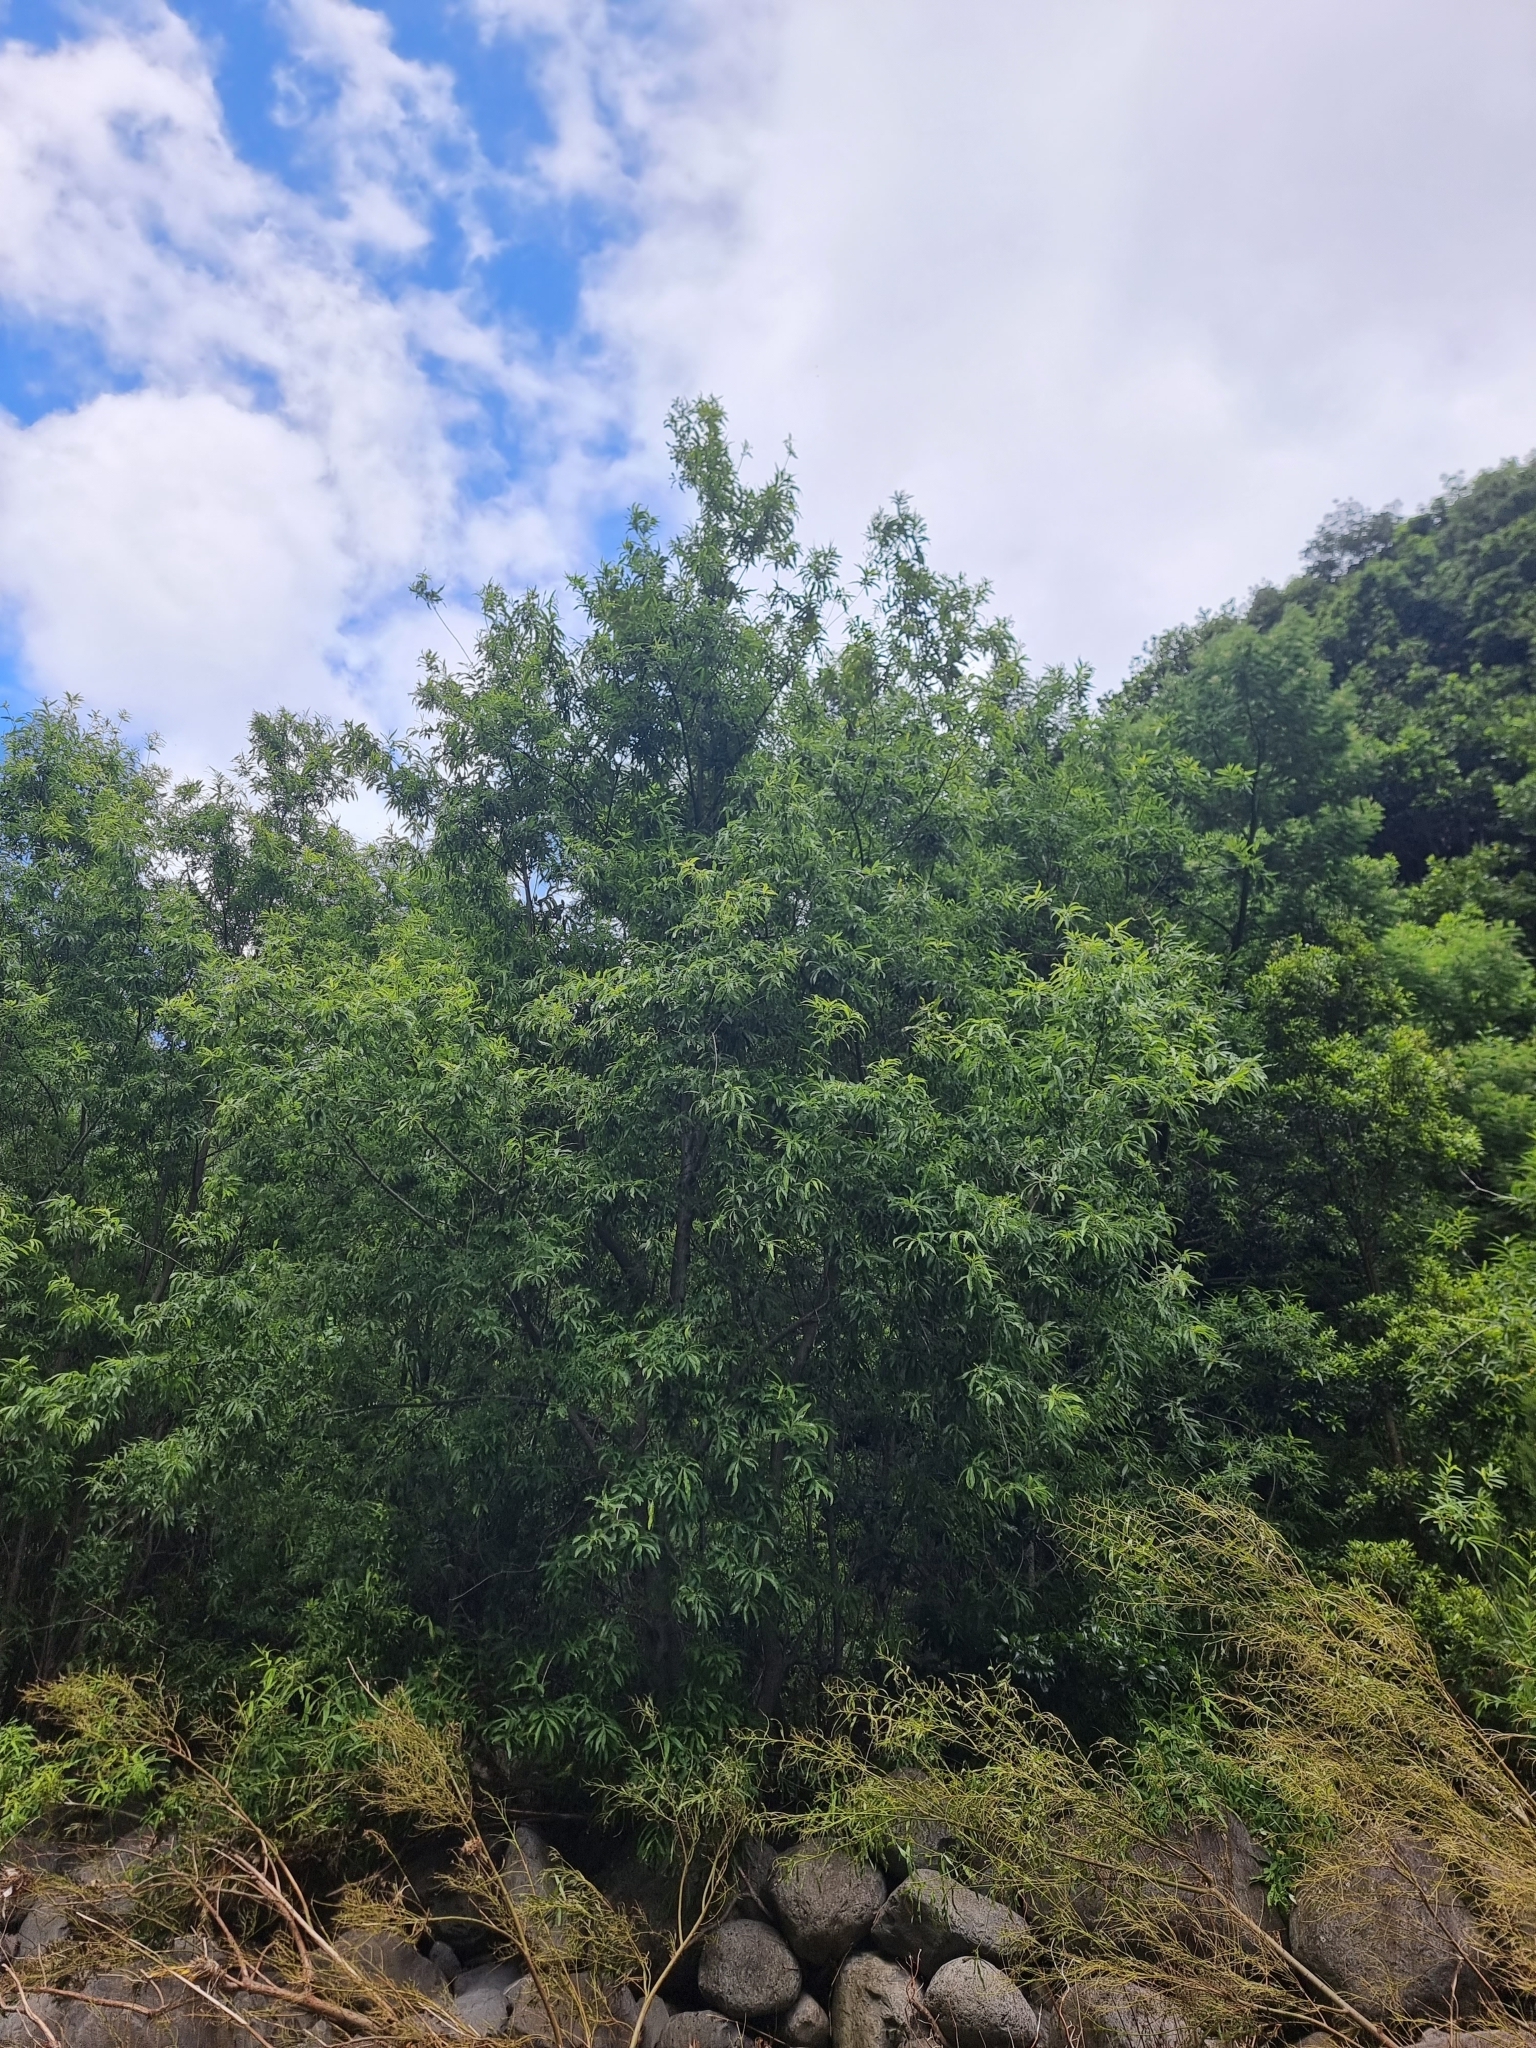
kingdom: Plantae
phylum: Tracheophyta
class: Magnoliopsida
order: Malpighiales
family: Salicaceae
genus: Salix
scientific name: Salix canariensis
